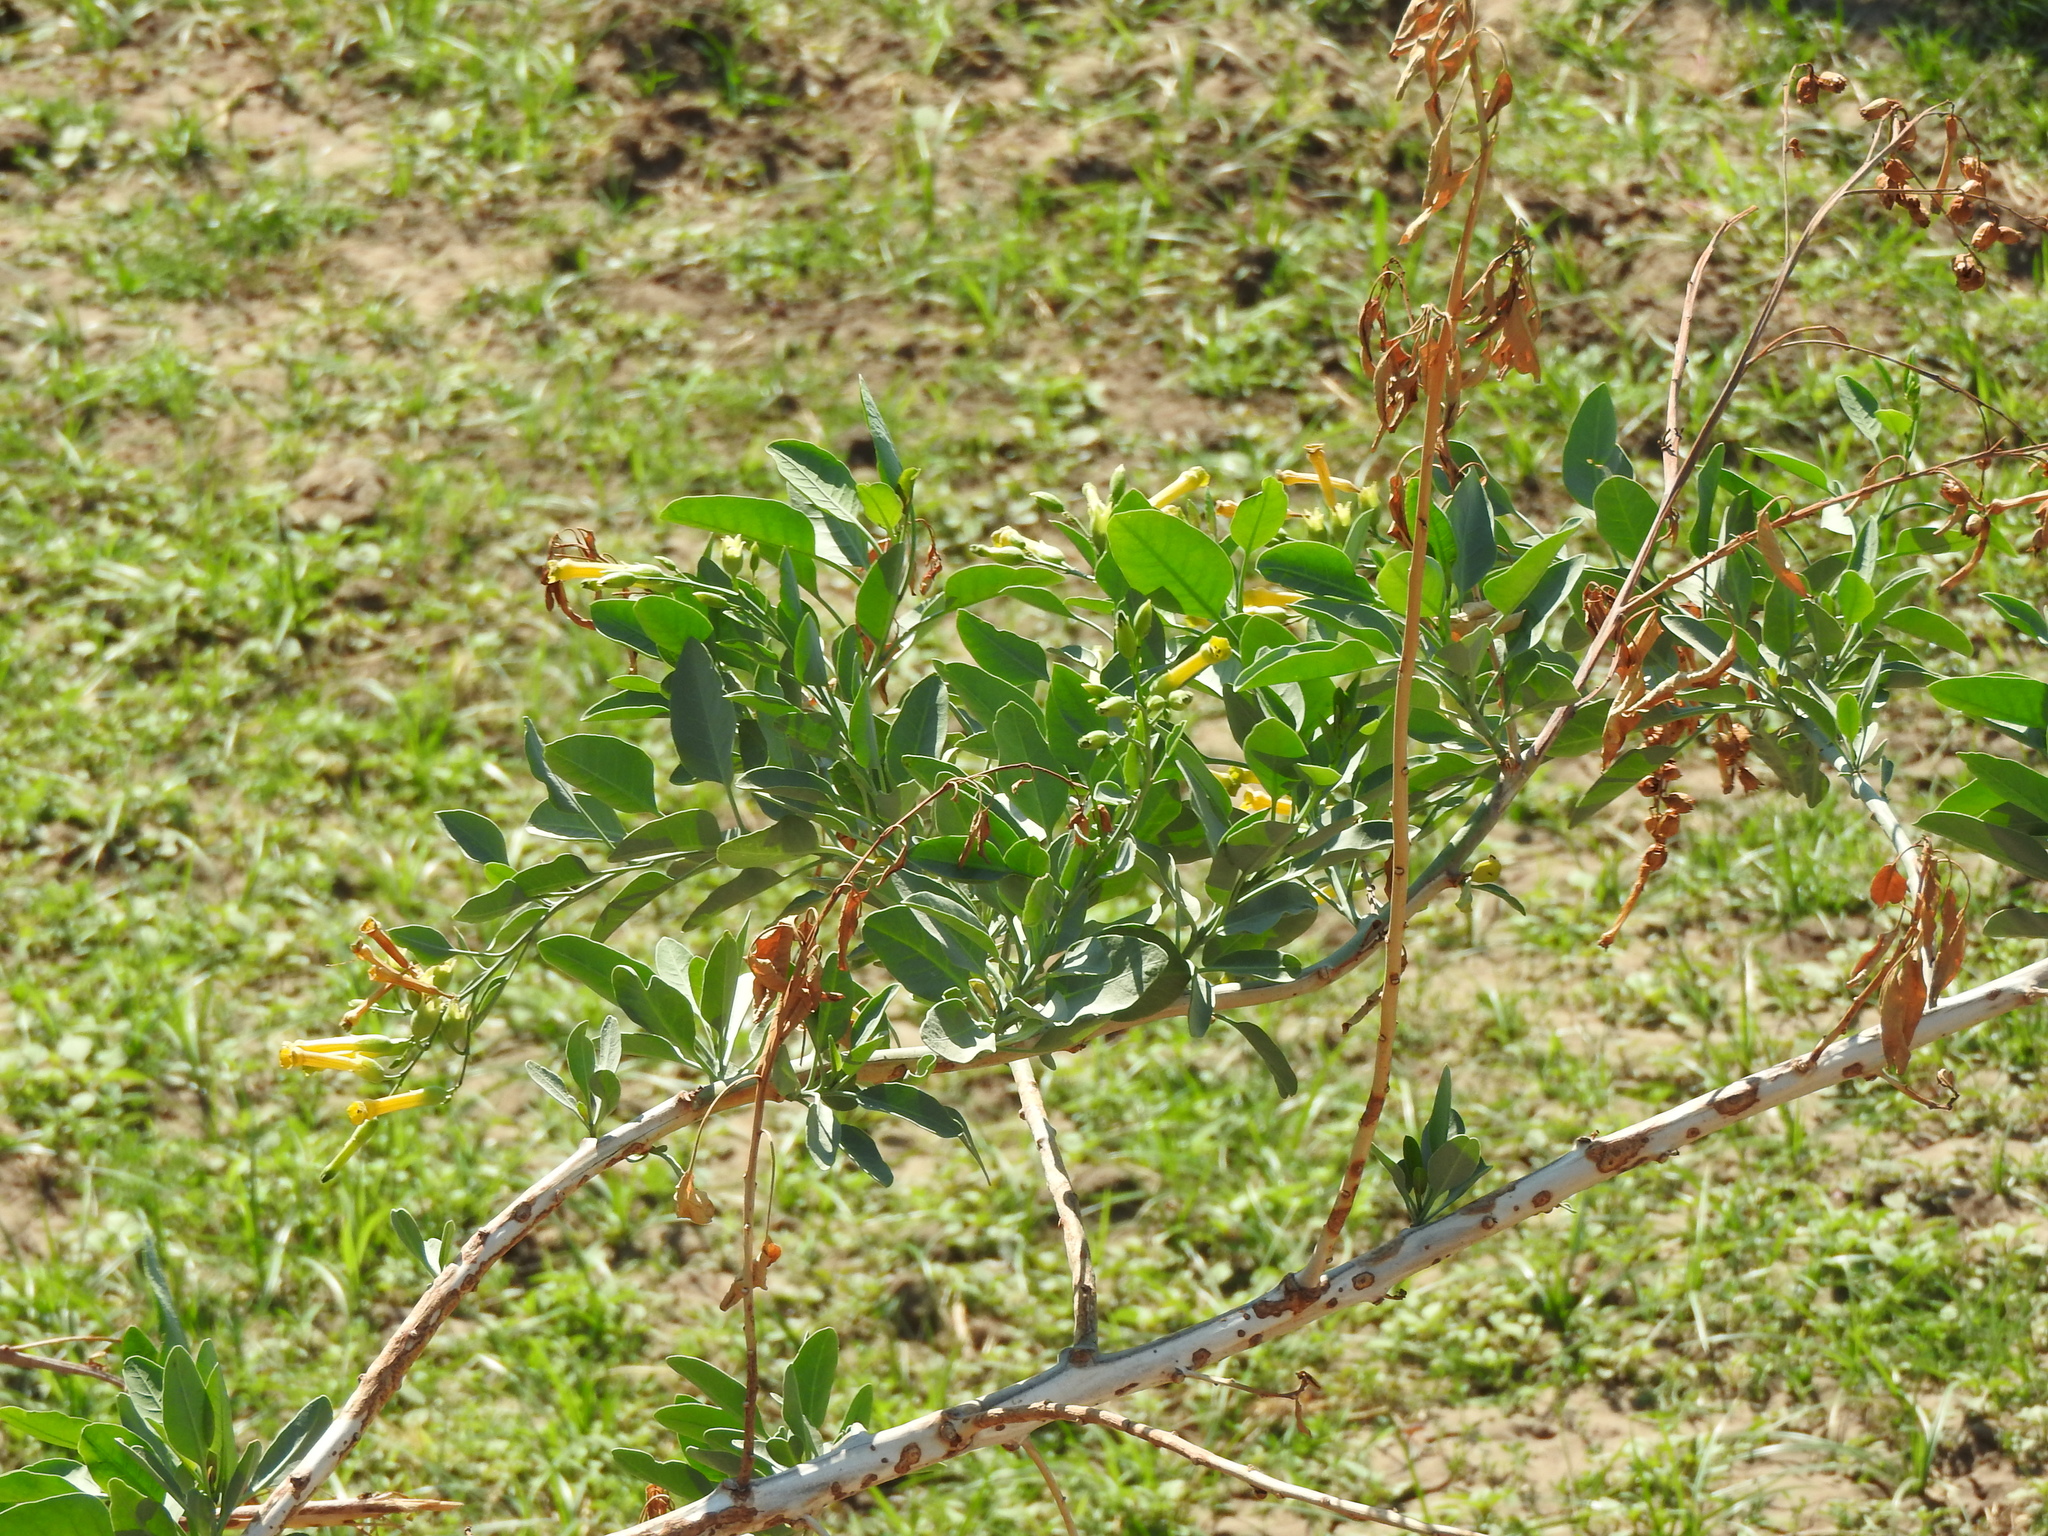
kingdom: Plantae
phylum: Tracheophyta
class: Magnoliopsida
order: Solanales
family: Solanaceae
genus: Nicotiana
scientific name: Nicotiana glauca
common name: Tree tobacco
